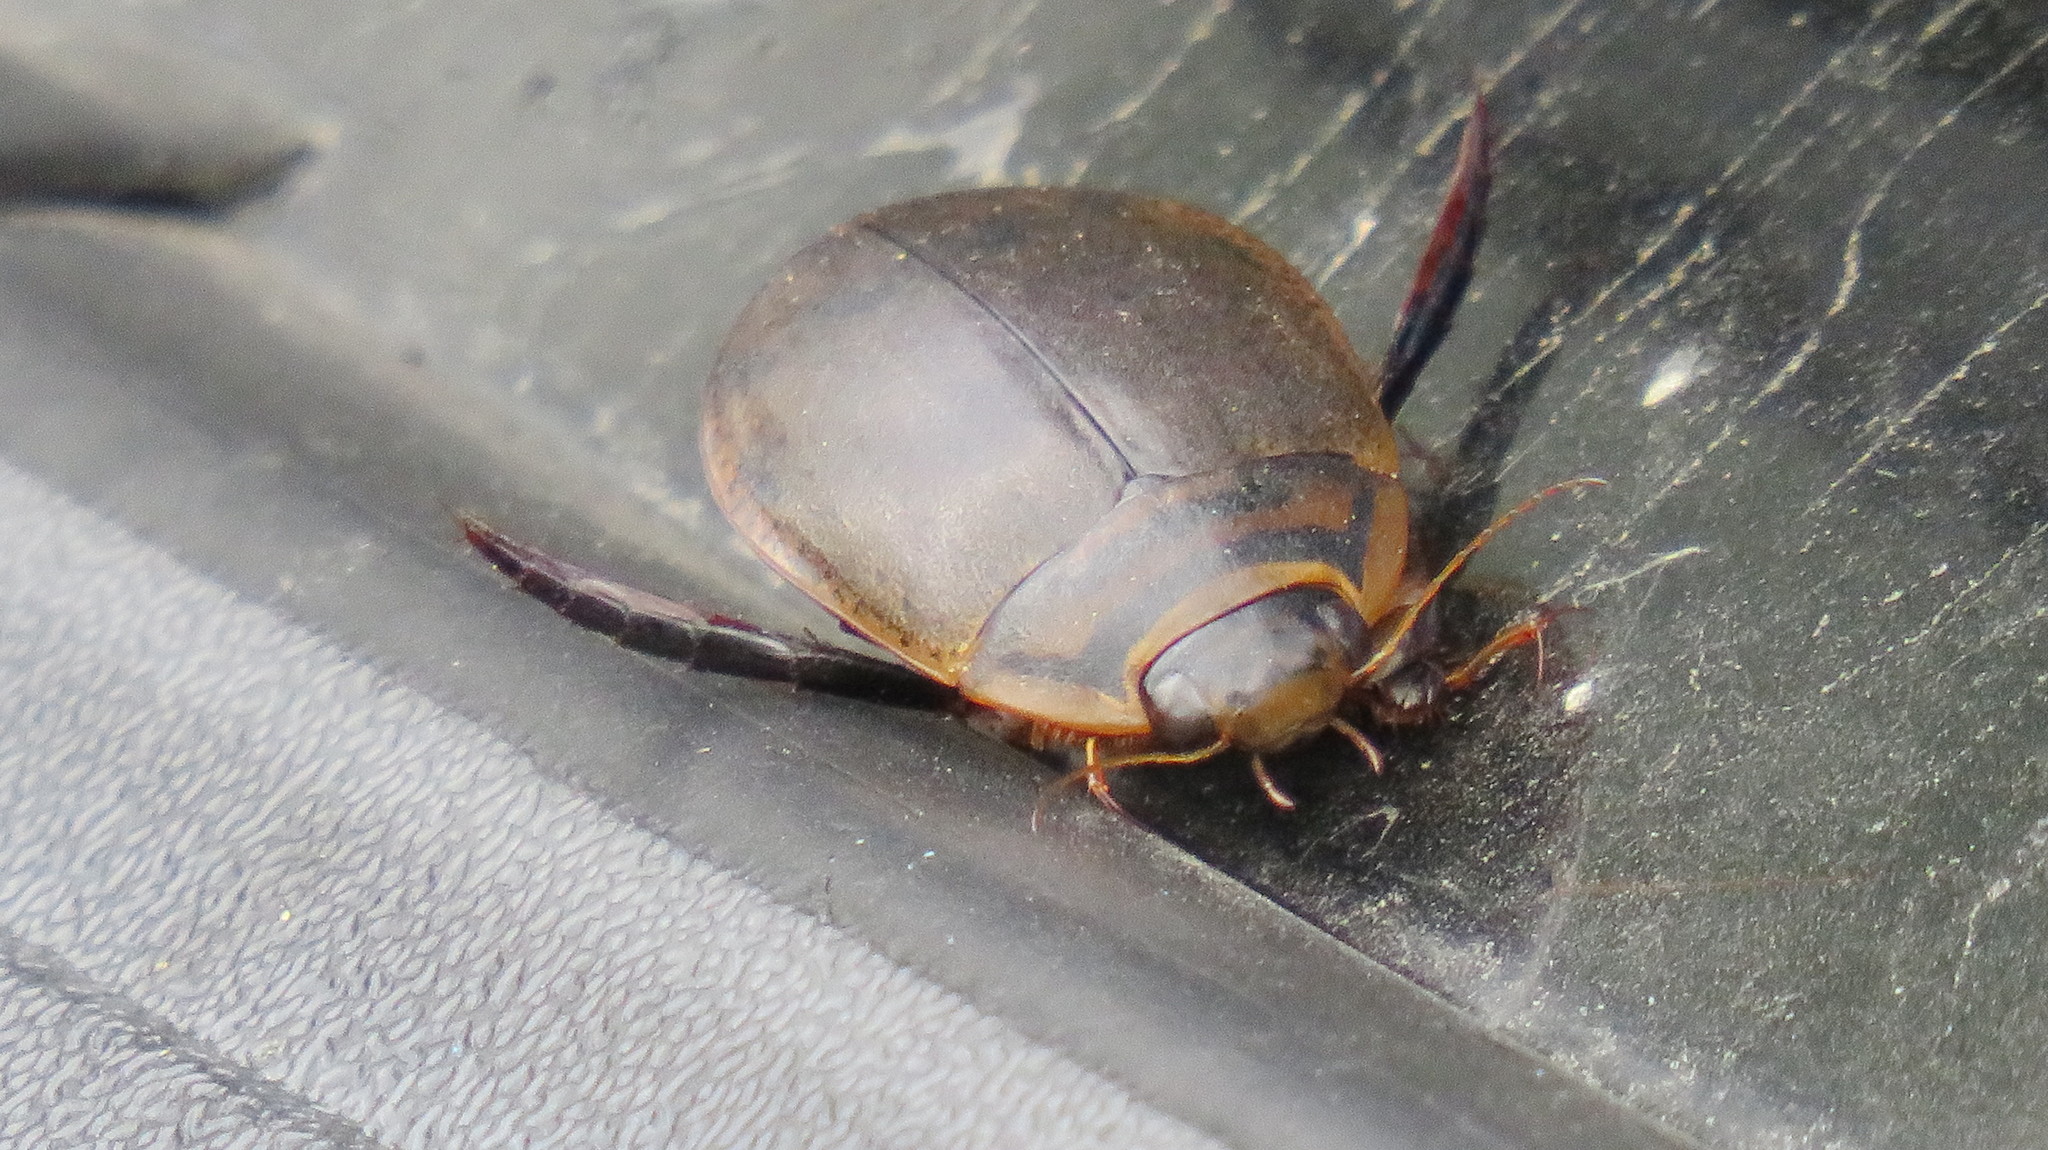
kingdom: Animalia
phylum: Arthropoda
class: Insecta
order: Coleoptera
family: Dytiscidae
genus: Acilius
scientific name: Acilius sulcatus
